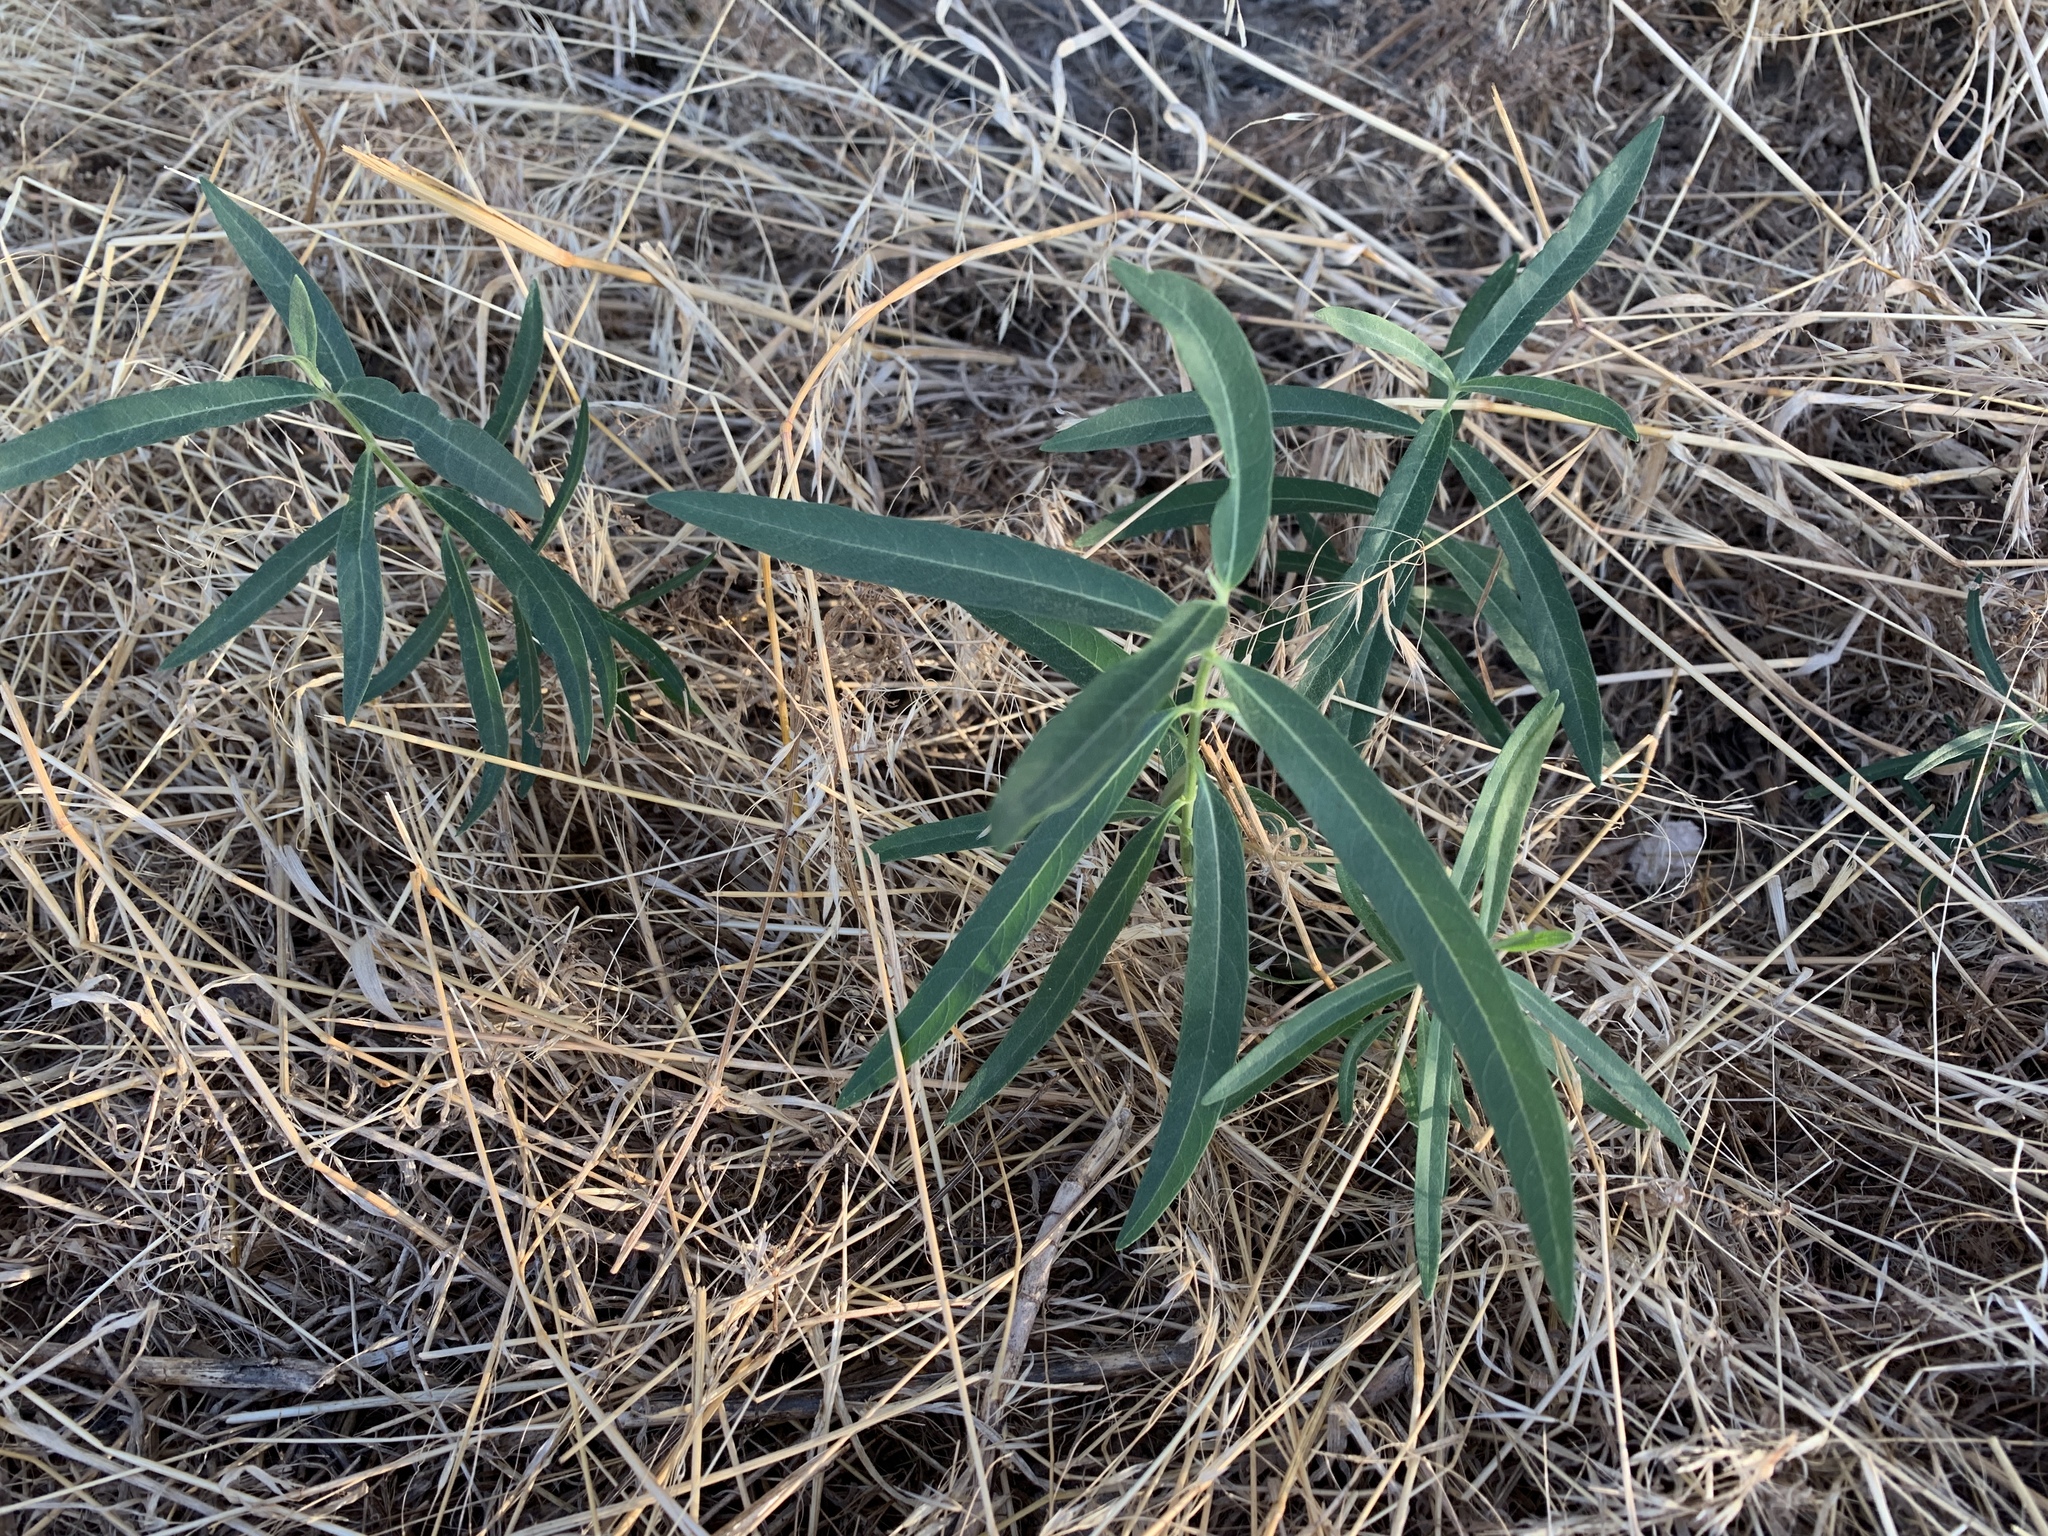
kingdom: Plantae
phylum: Tracheophyta
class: Magnoliopsida
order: Gentianales
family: Apocynaceae
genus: Asclepias
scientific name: Asclepias speciosa
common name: Showy milkweed
